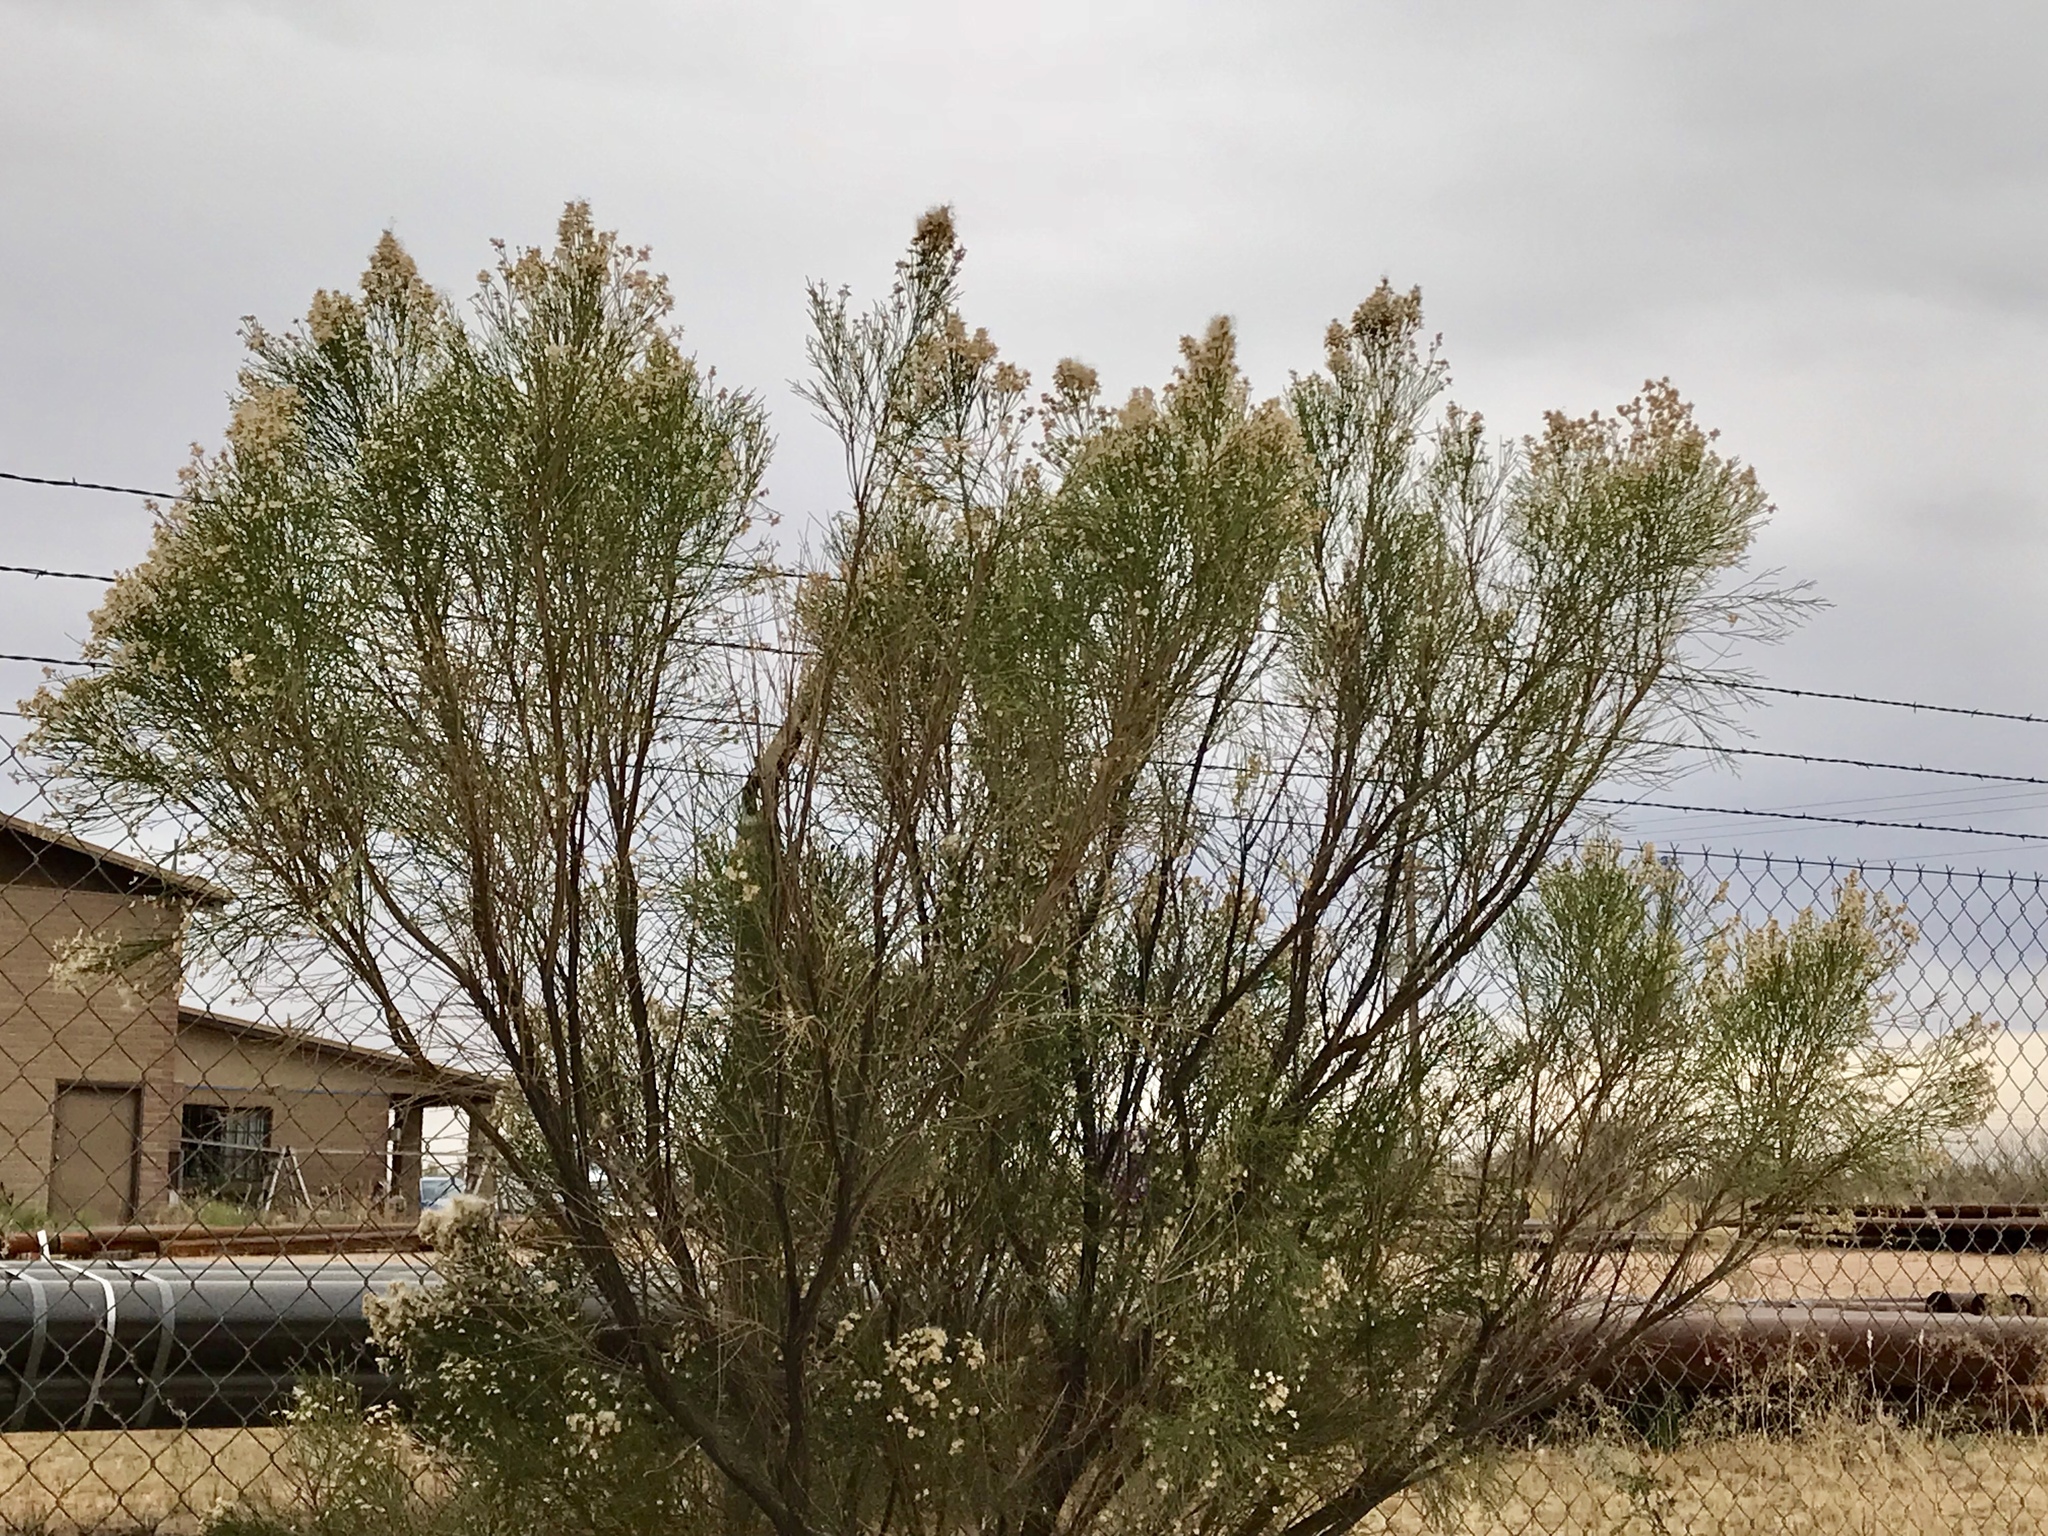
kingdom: Plantae
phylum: Tracheophyta
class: Magnoliopsida
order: Asterales
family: Asteraceae
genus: Baccharis
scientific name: Baccharis sarothroides
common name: Desert-broom
